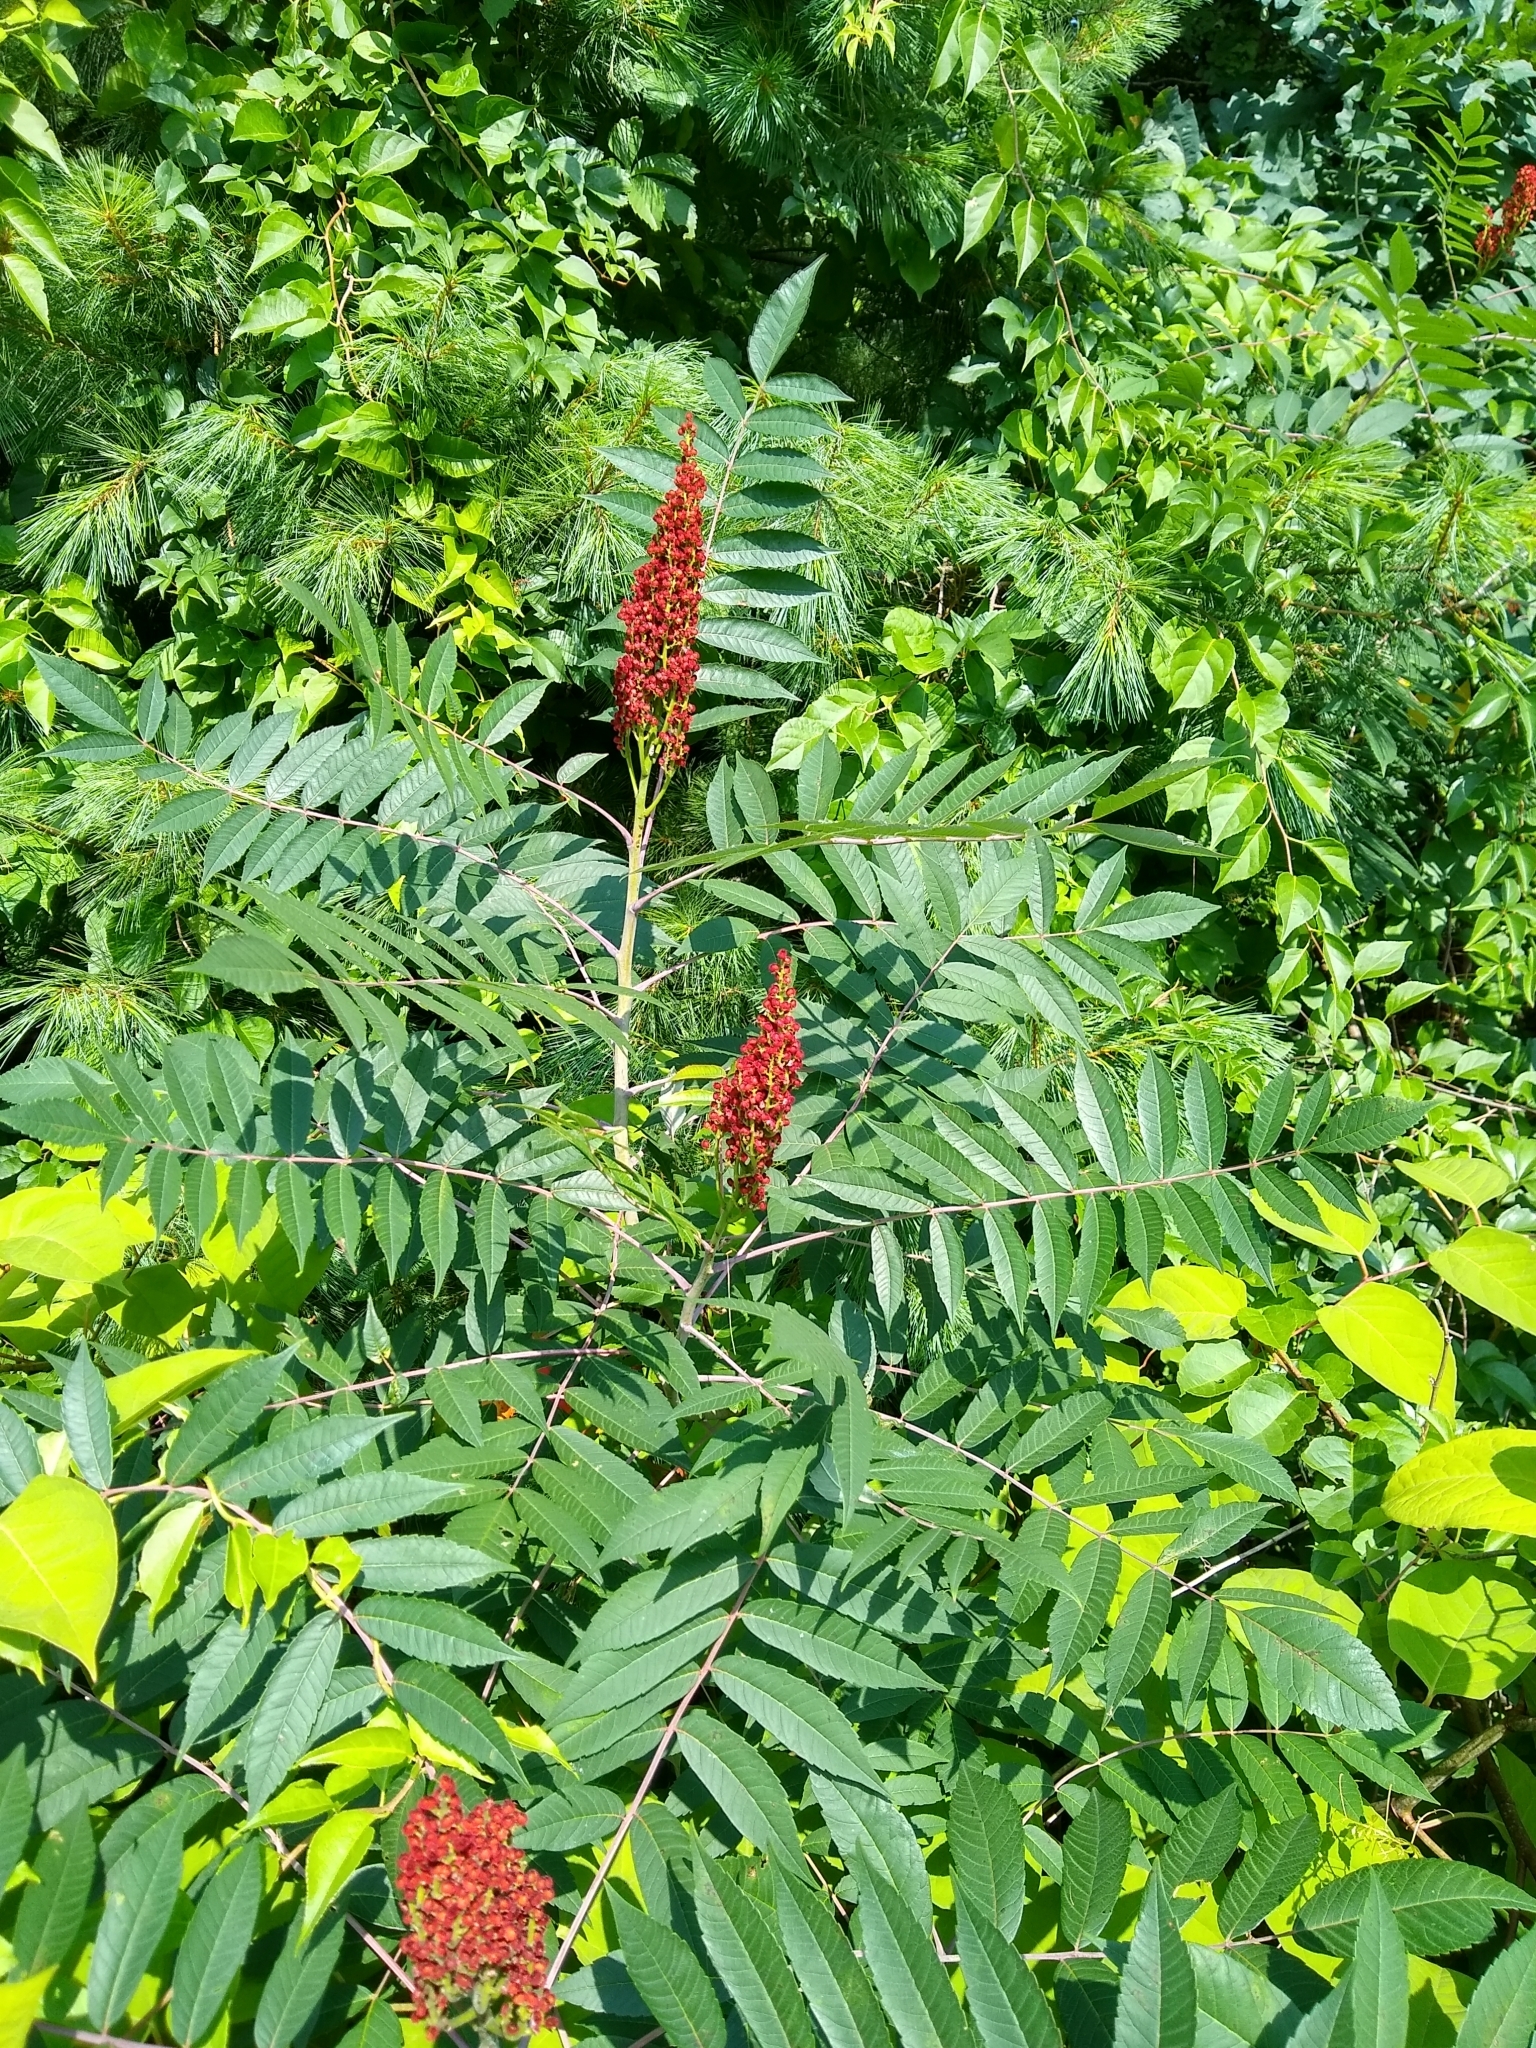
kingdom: Plantae
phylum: Tracheophyta
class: Magnoliopsida
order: Sapindales
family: Anacardiaceae
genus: Rhus
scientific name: Rhus glabra
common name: Scarlet sumac
